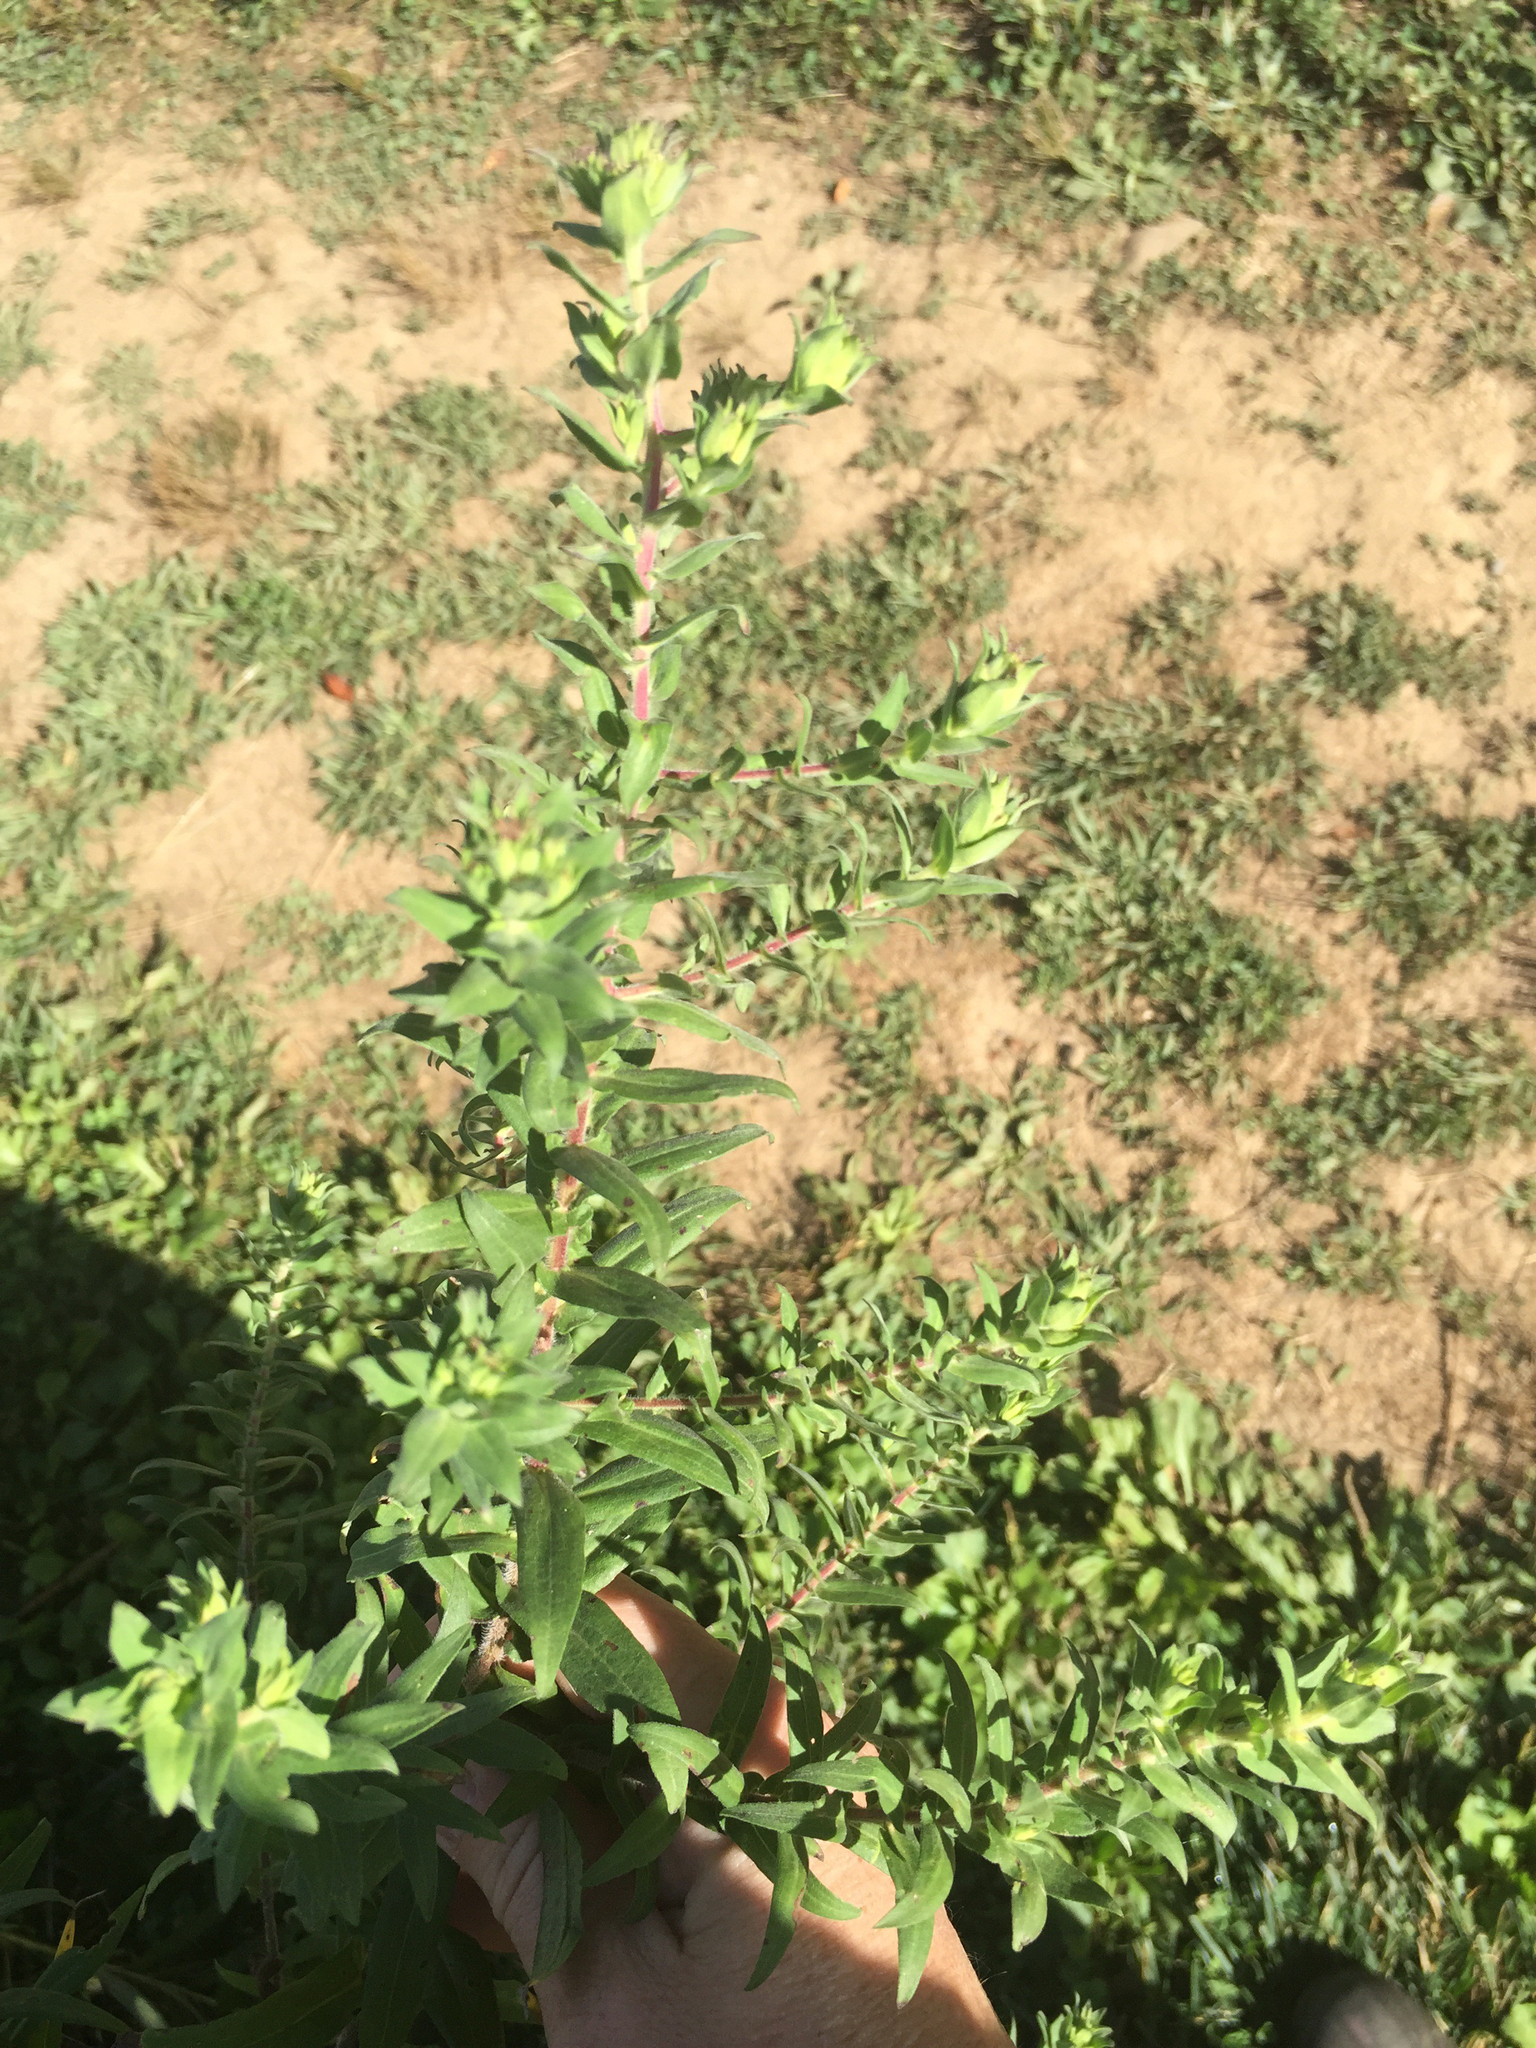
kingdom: Plantae
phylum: Tracheophyta
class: Magnoliopsida
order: Asterales
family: Asteraceae
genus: Symphyotrichum
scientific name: Symphyotrichum novae-angliae
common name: Michaelmas daisy
